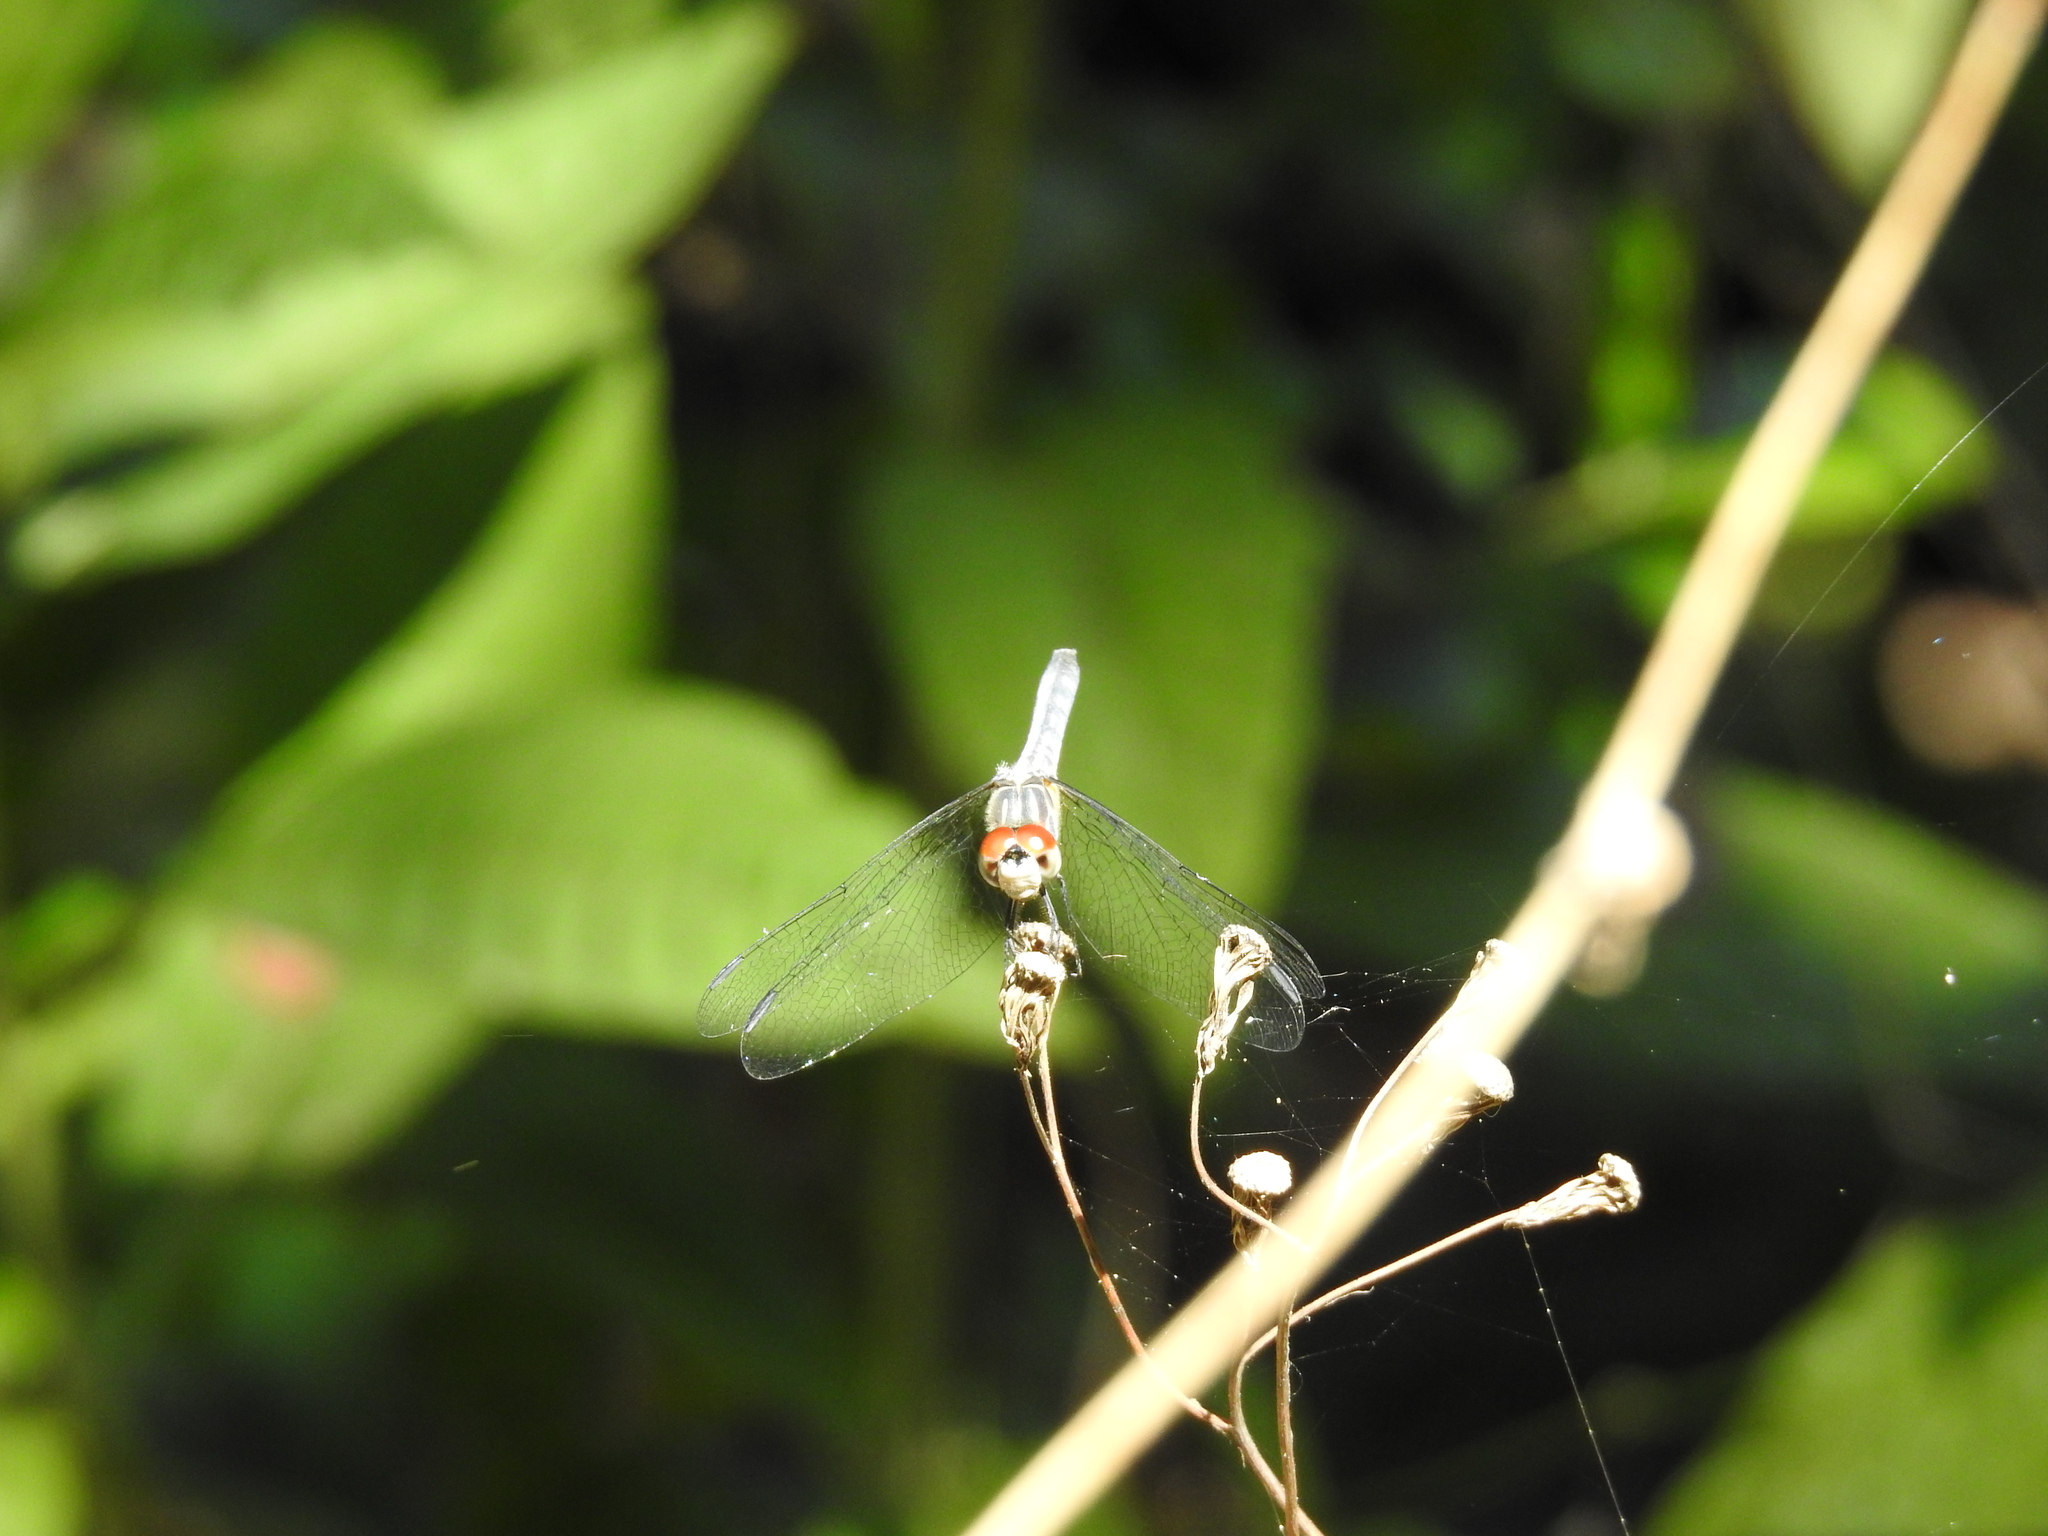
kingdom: Animalia
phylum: Arthropoda
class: Insecta
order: Odonata
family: Libellulidae
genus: Pachydiplax
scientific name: Pachydiplax longipennis
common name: Blue dasher
